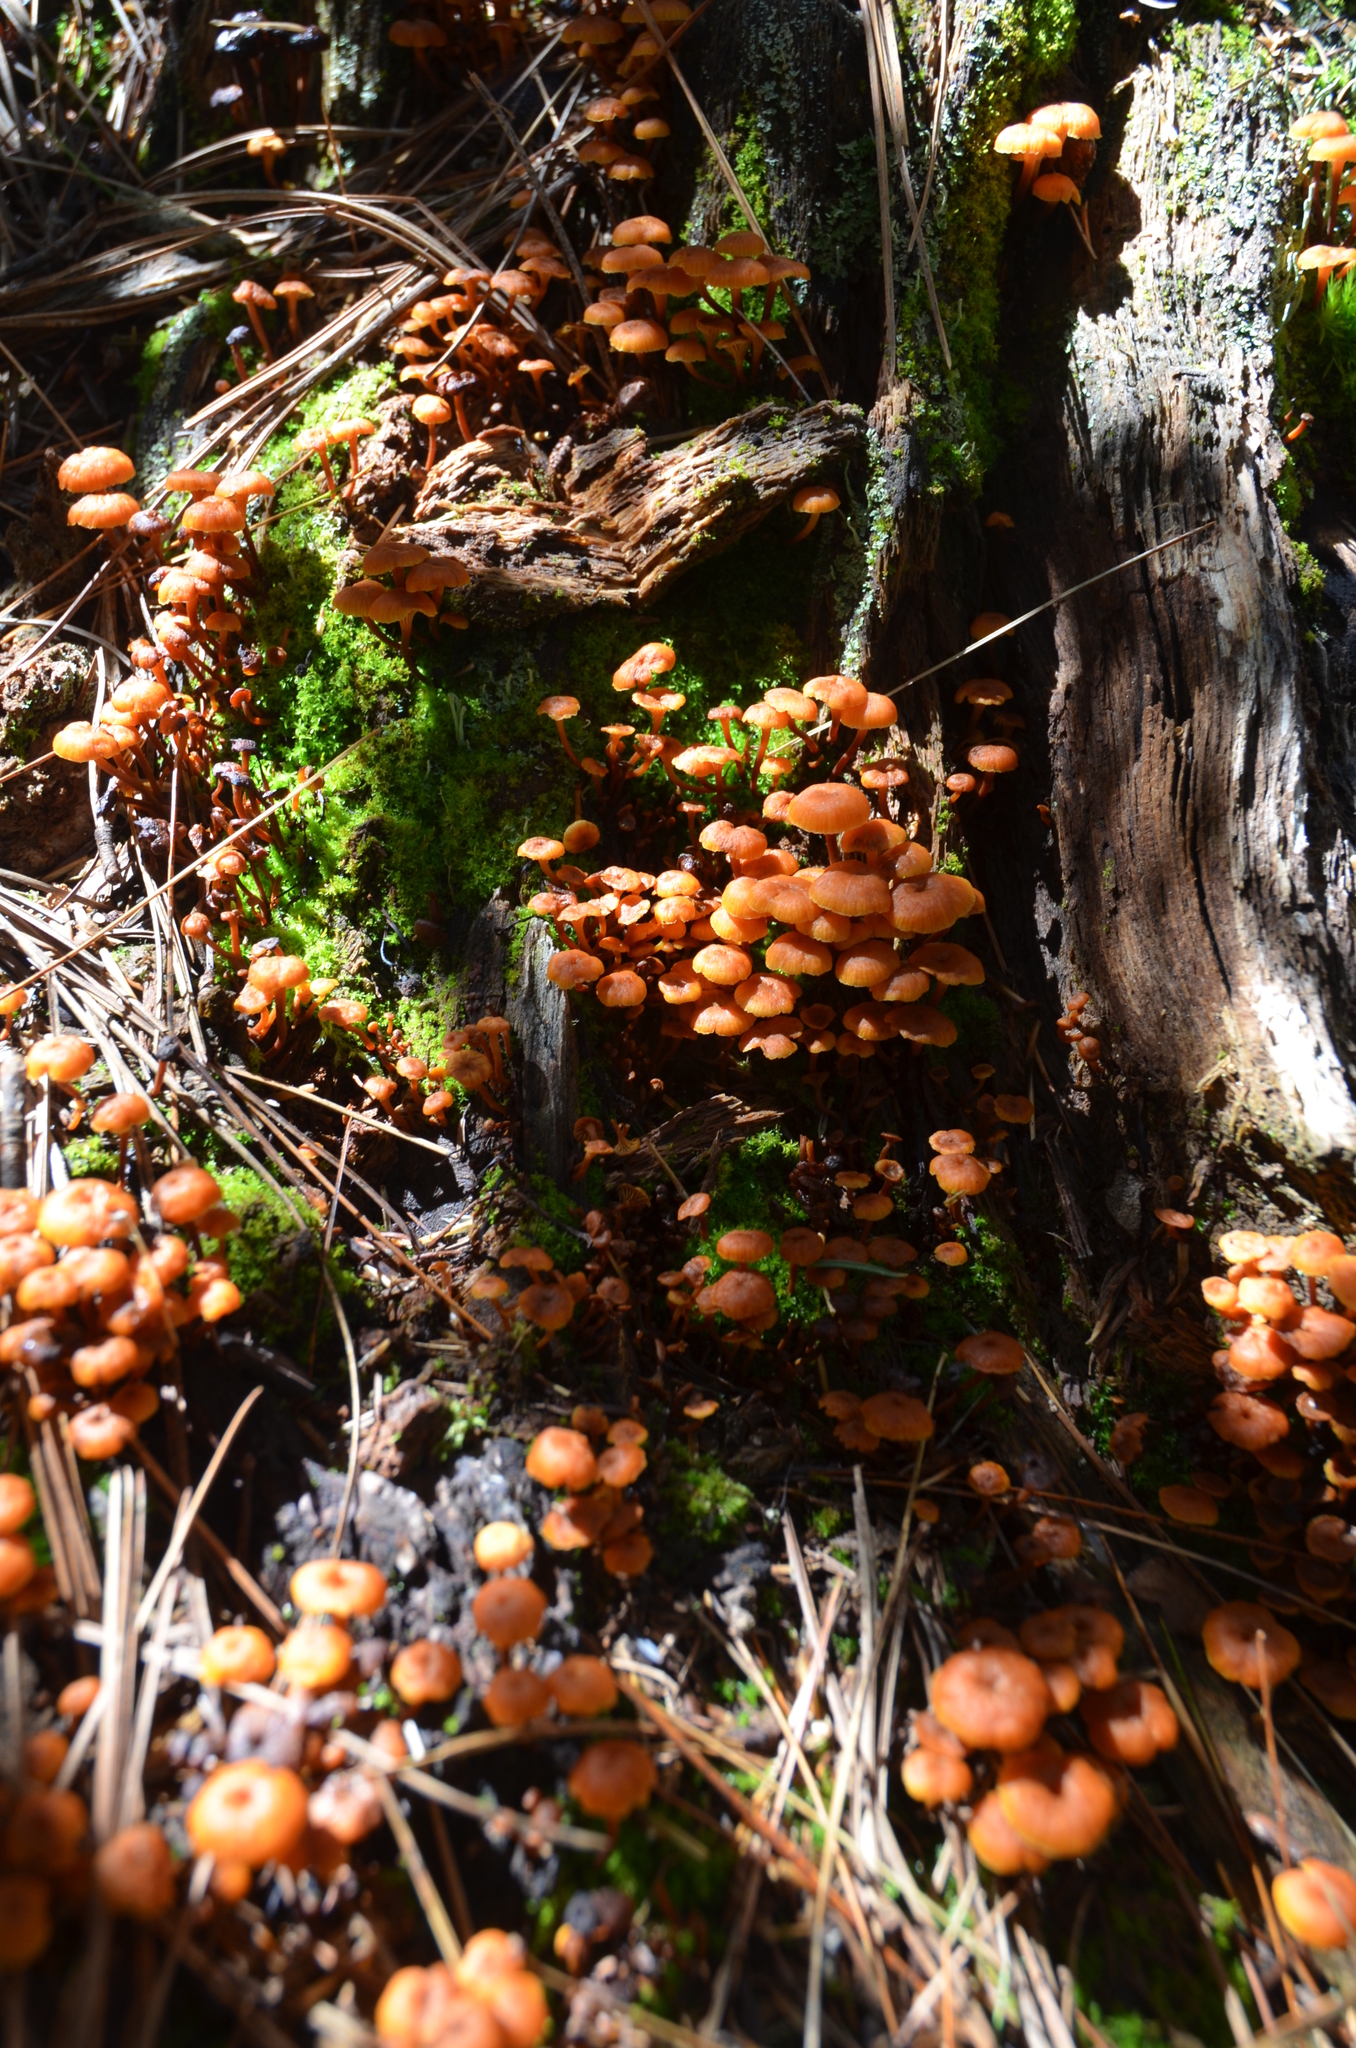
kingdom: Fungi
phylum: Basidiomycota
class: Agaricomycetes
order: Agaricales
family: Mycenaceae
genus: Xeromphalina
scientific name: Xeromphalina campanella
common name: Pinewood gingertail
